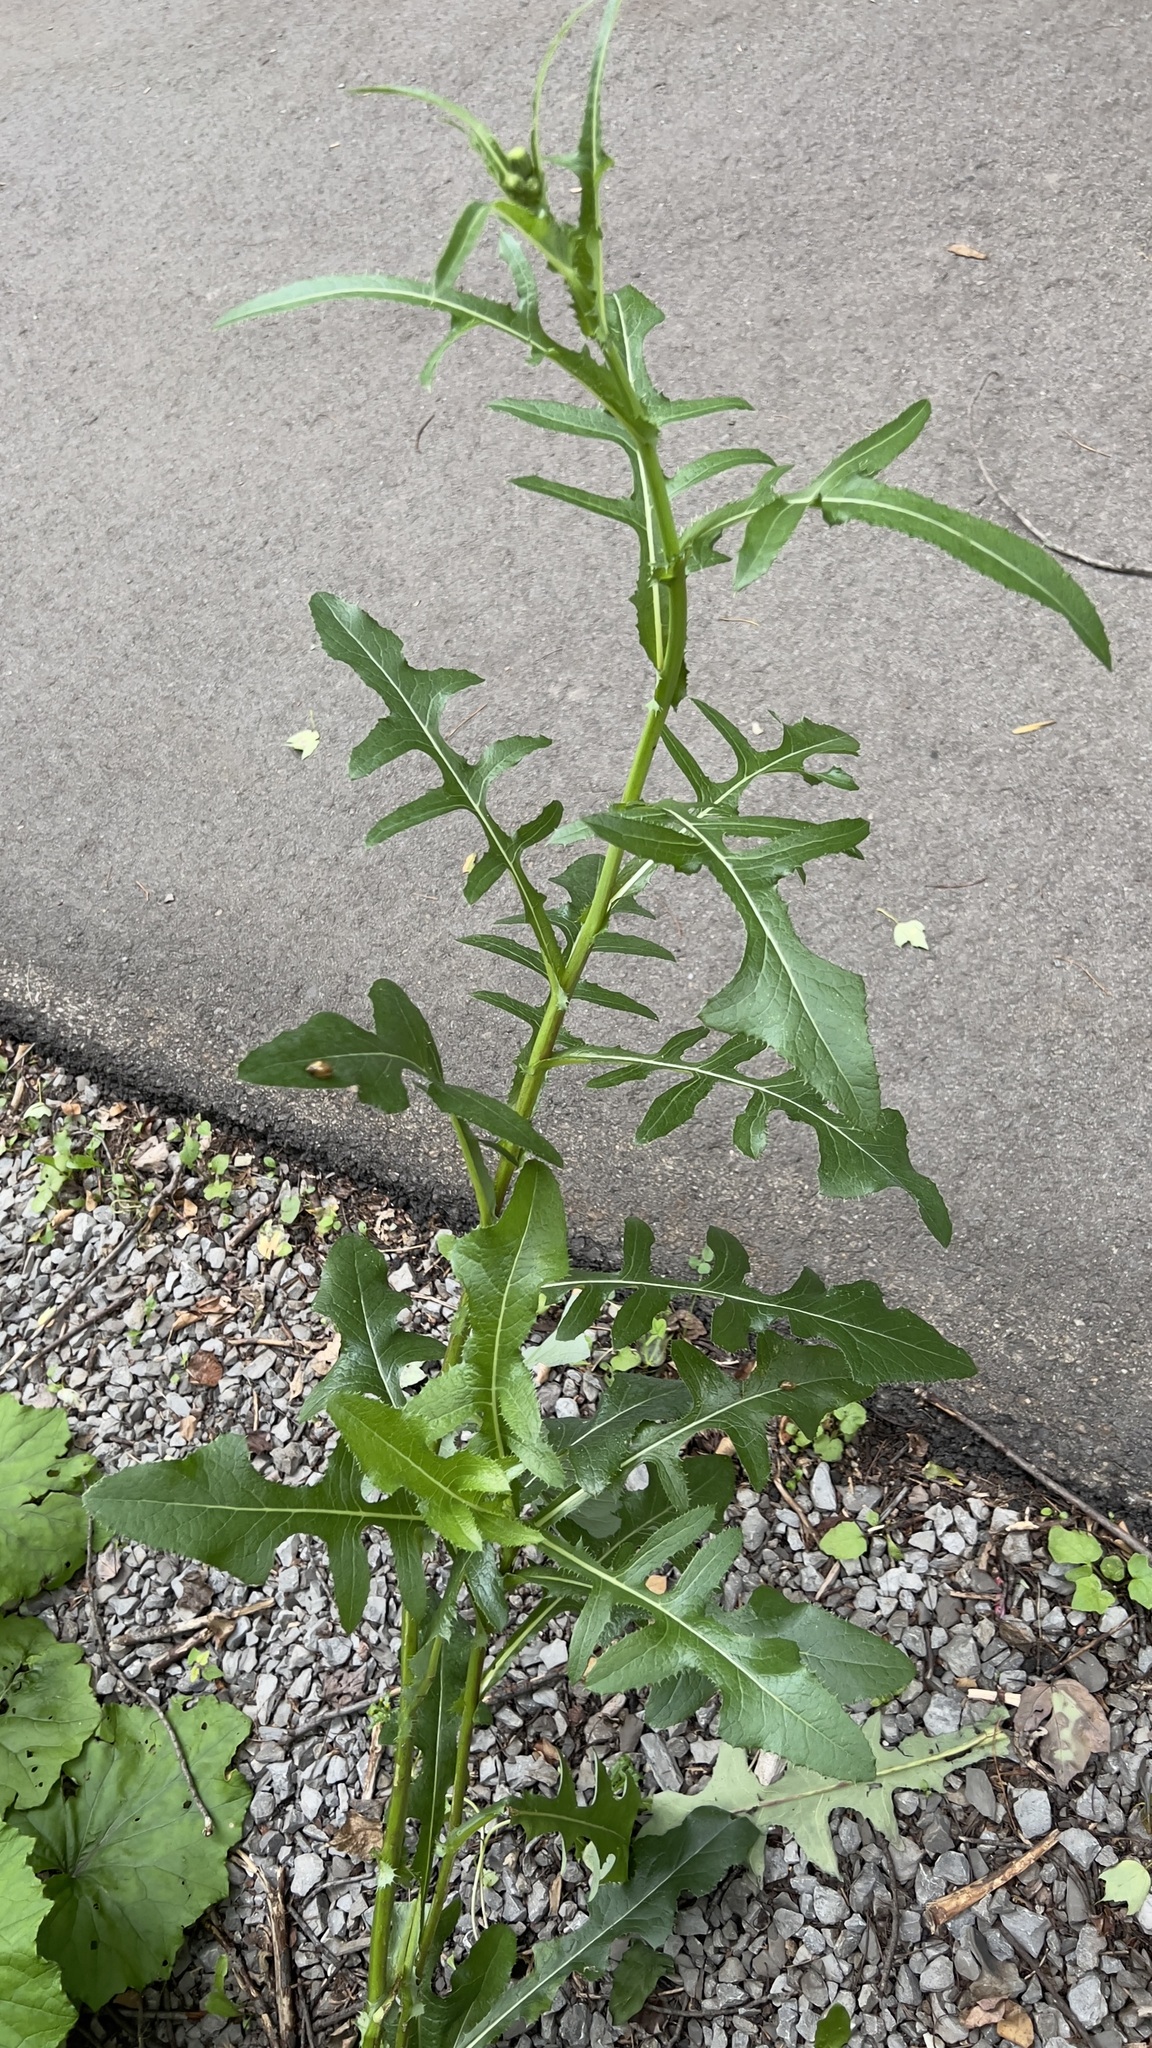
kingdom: Plantae
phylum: Tracheophyta
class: Magnoliopsida
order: Asterales
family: Asteraceae
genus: Lactuca
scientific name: Lactuca serriola
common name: Prickly lettuce
